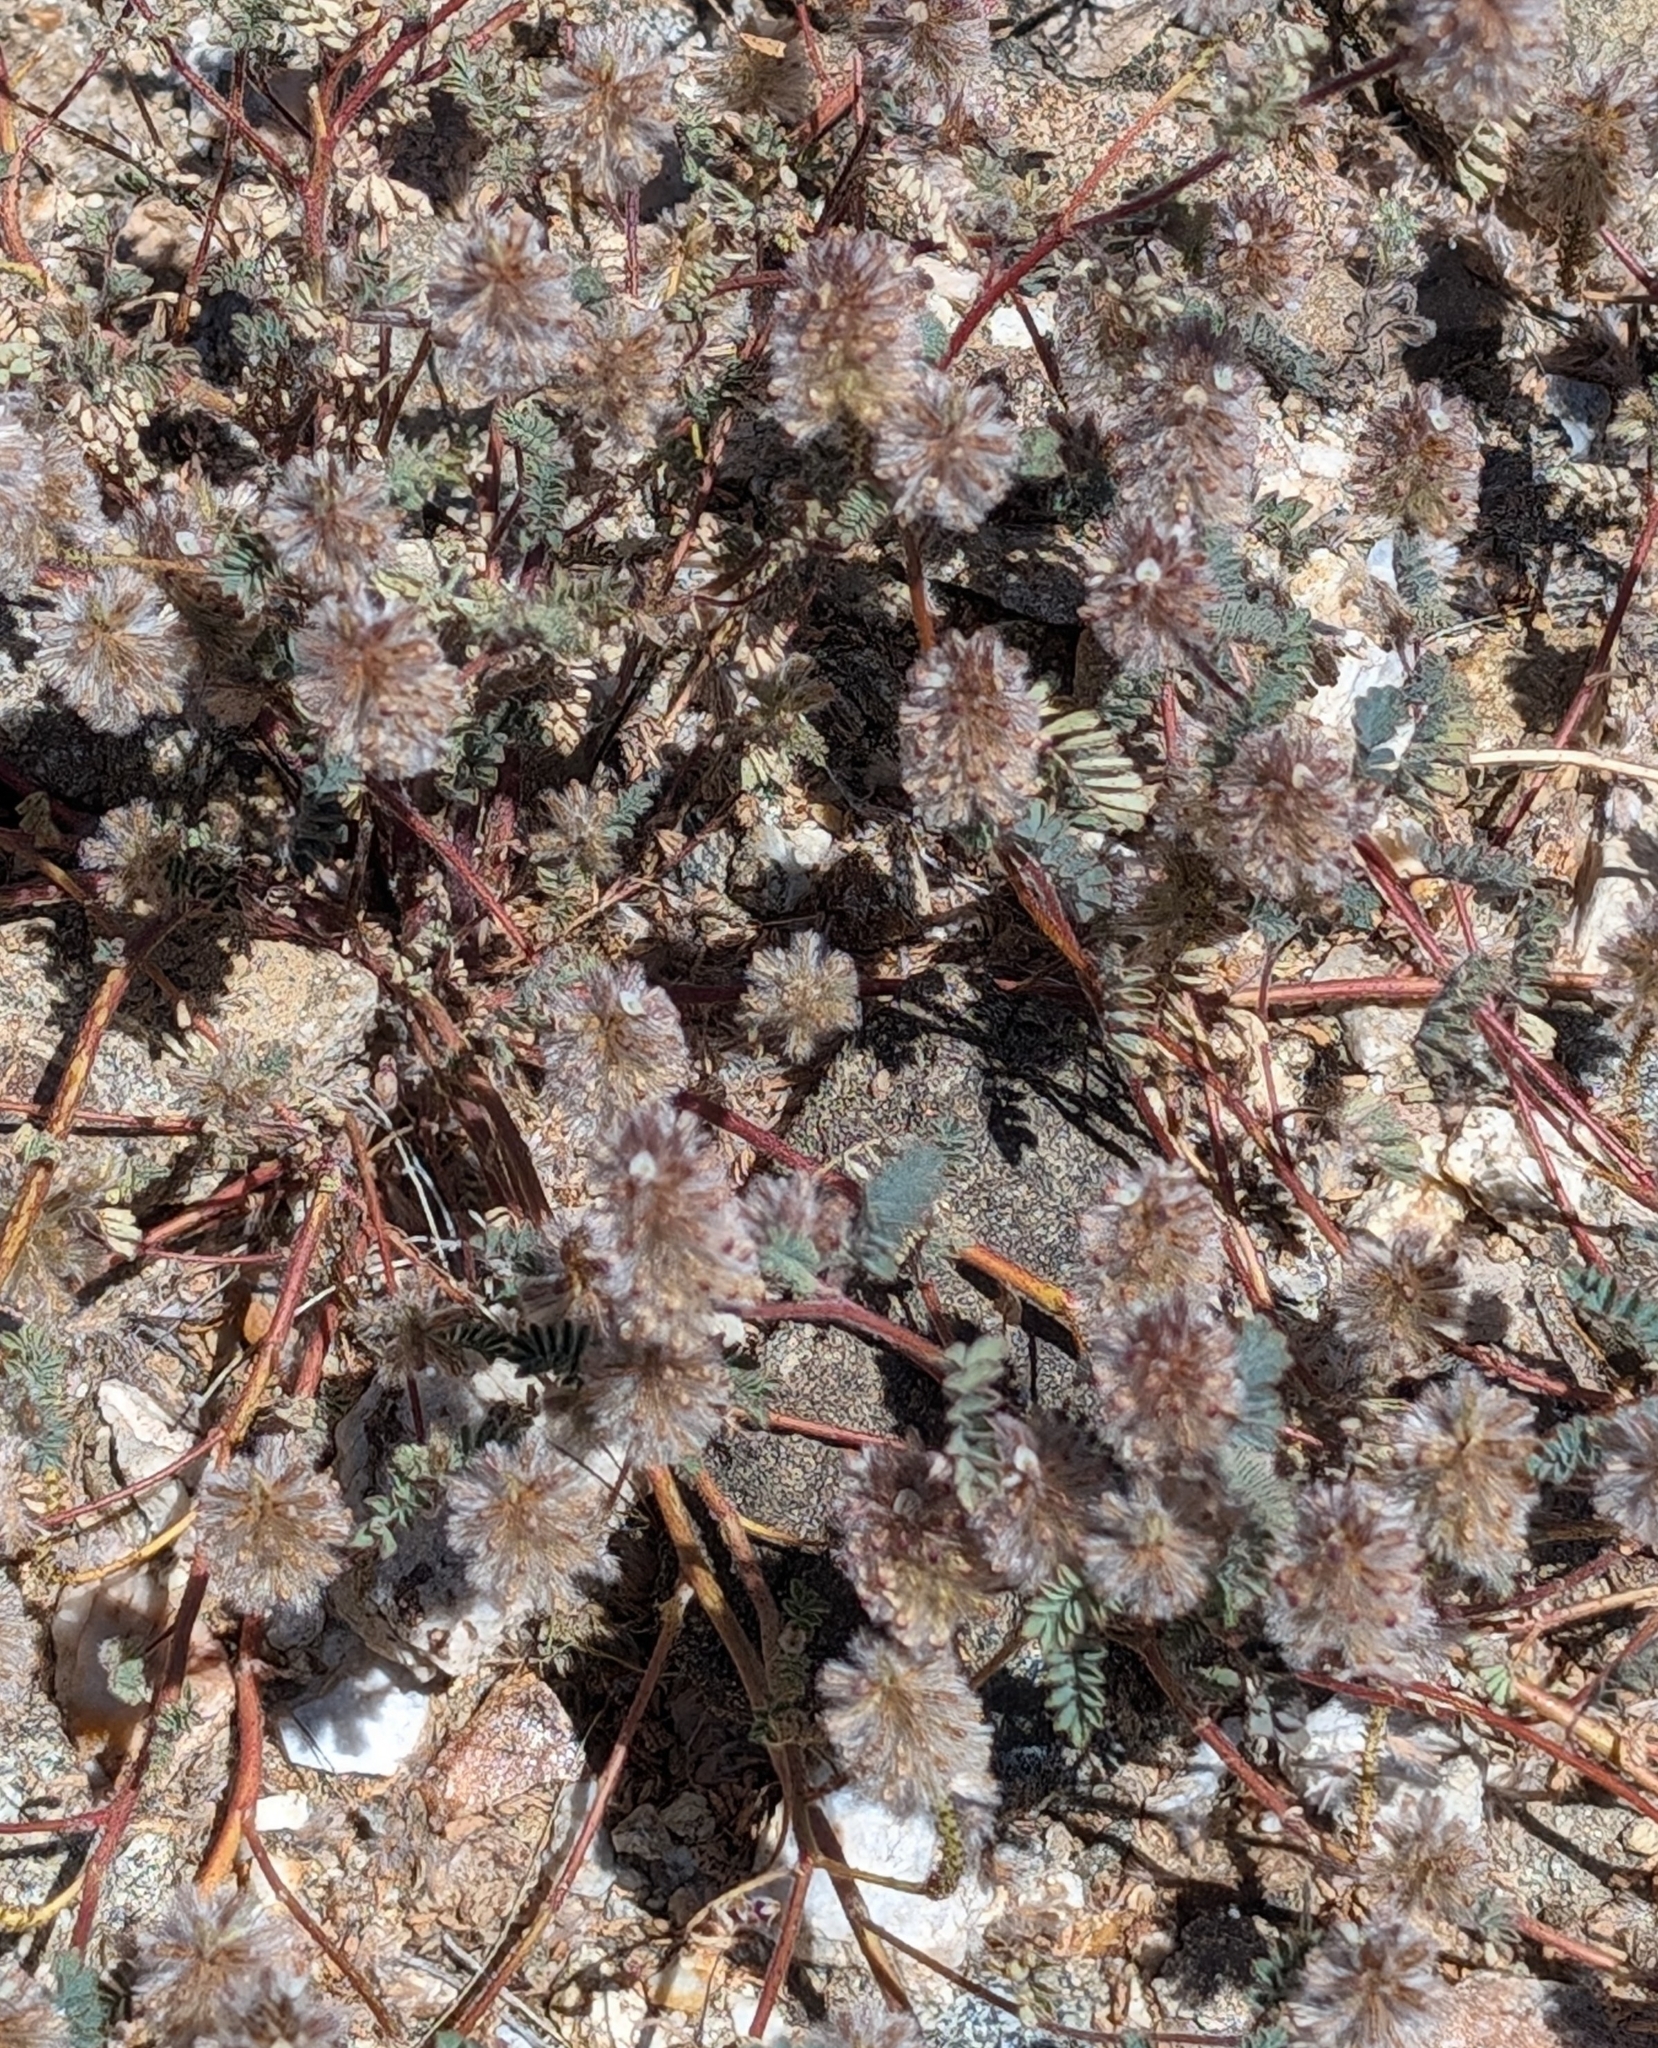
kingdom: Plantae
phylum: Tracheophyta
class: Magnoliopsida
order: Fabales
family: Fabaceae
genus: Dalea
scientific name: Dalea mollis
